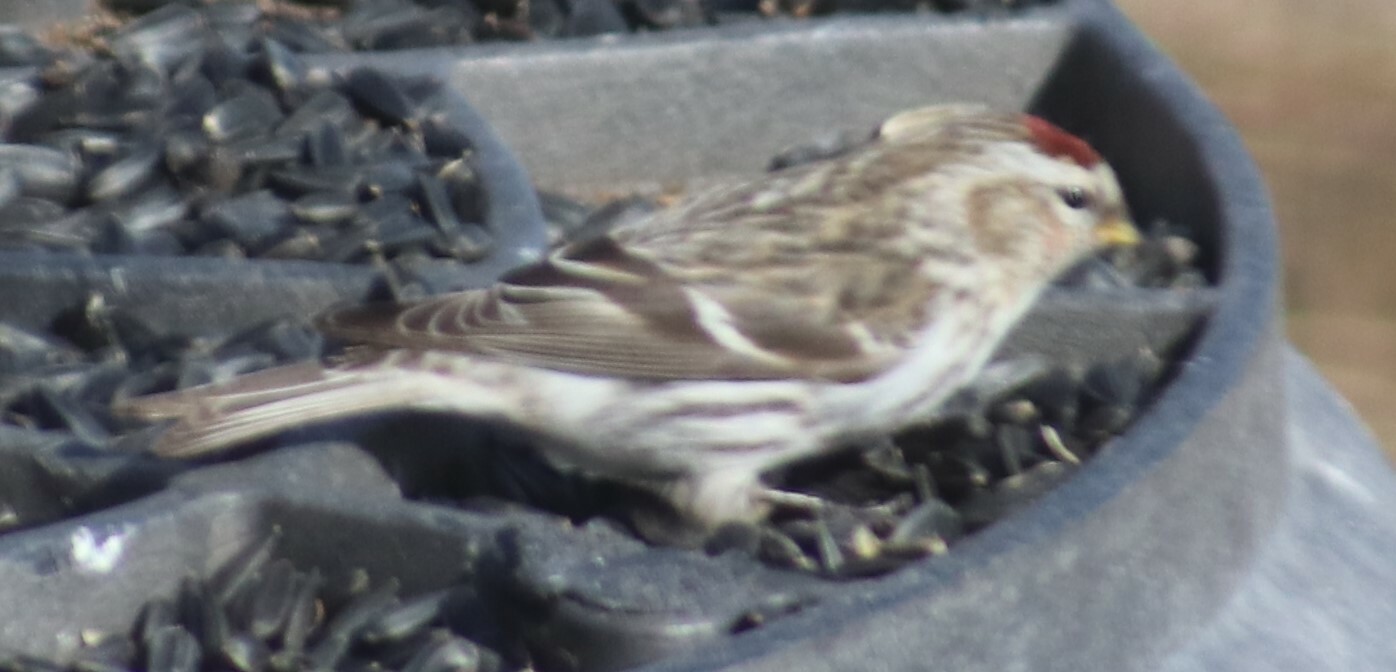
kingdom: Animalia
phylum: Chordata
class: Aves
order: Passeriformes
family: Fringillidae
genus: Acanthis
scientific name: Acanthis flammea
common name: Common redpoll
